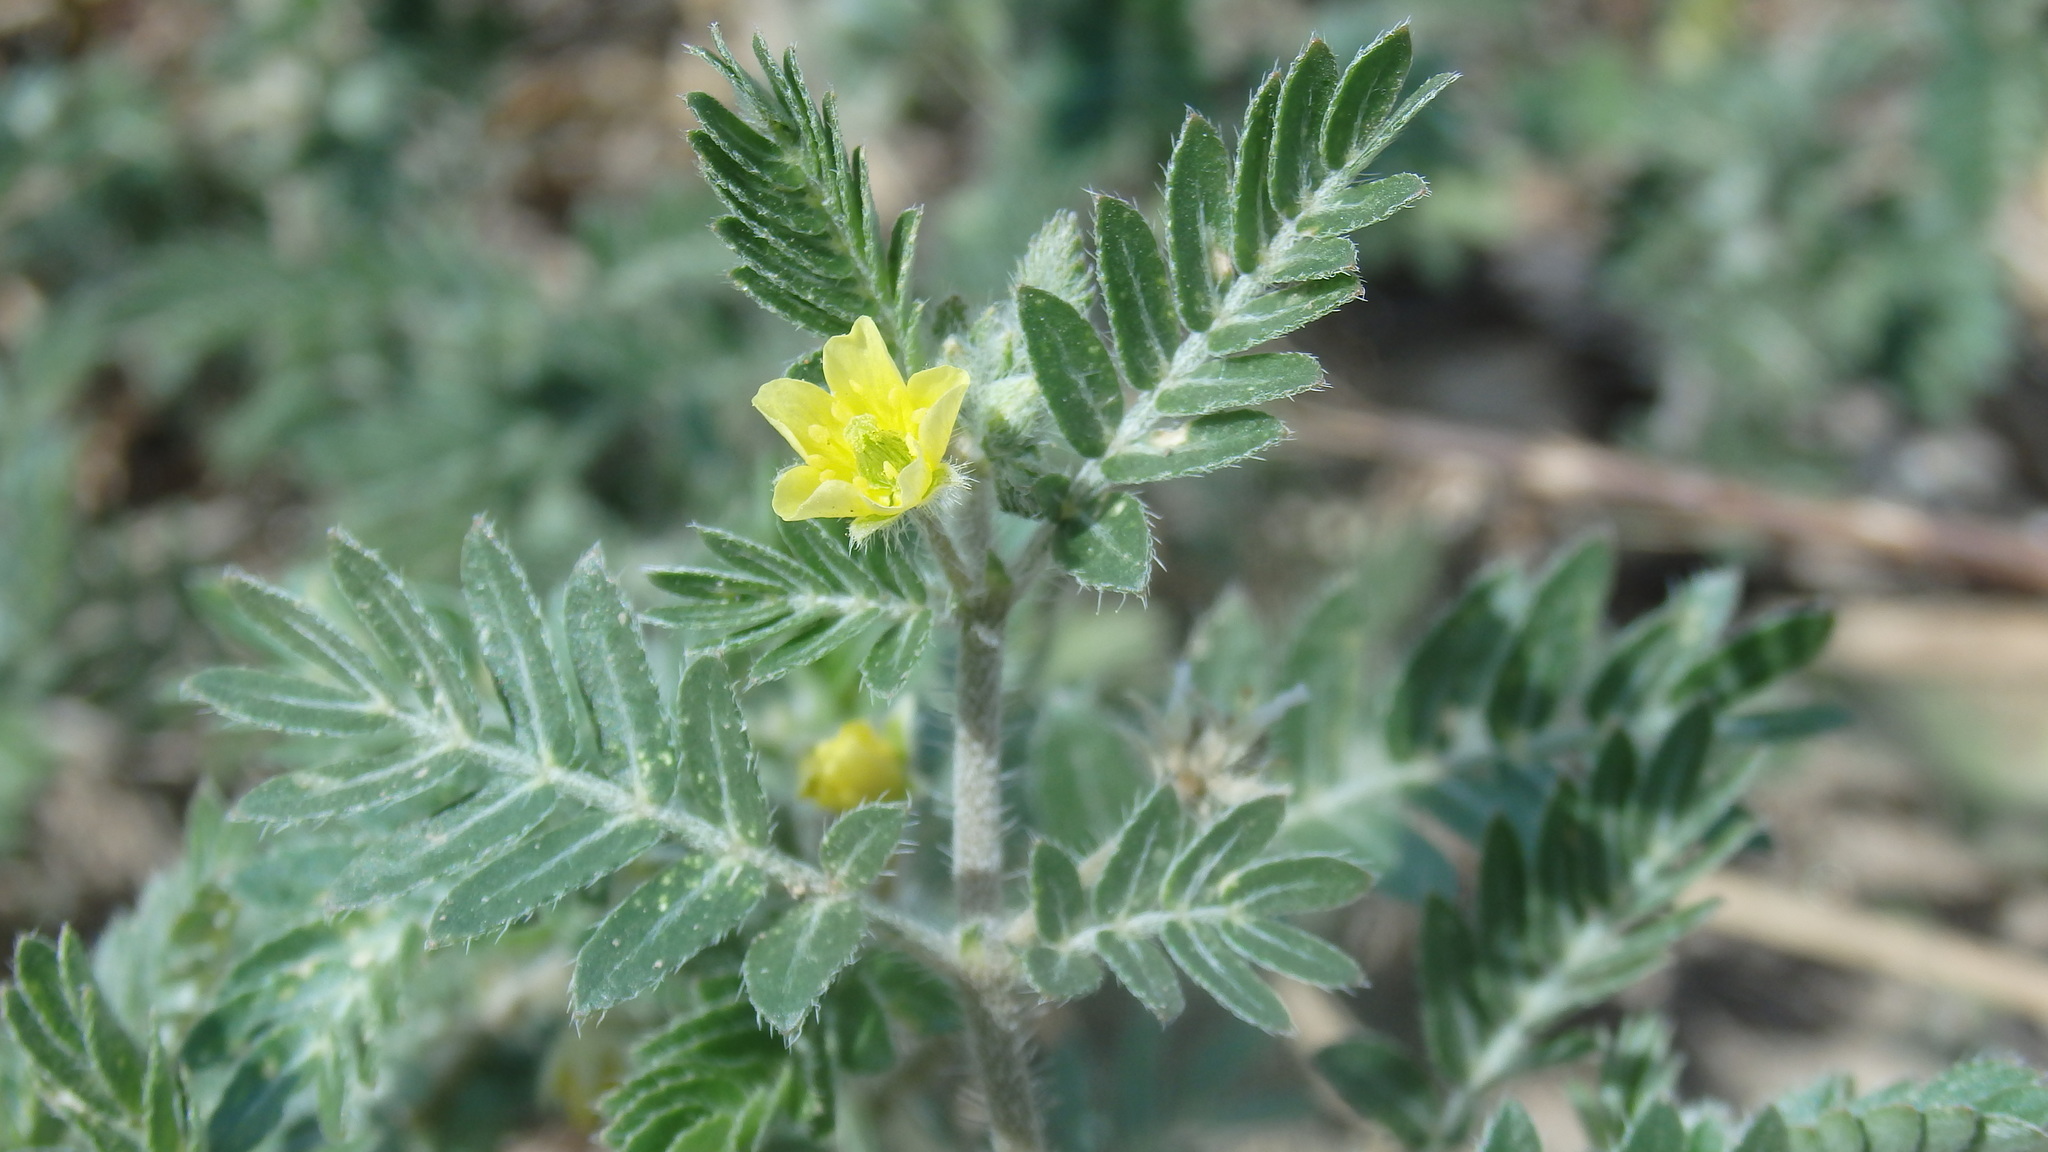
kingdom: Plantae
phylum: Tracheophyta
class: Magnoliopsida
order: Zygophyllales
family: Zygophyllaceae
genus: Tribulus
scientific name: Tribulus terrestris
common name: Puncturevine
